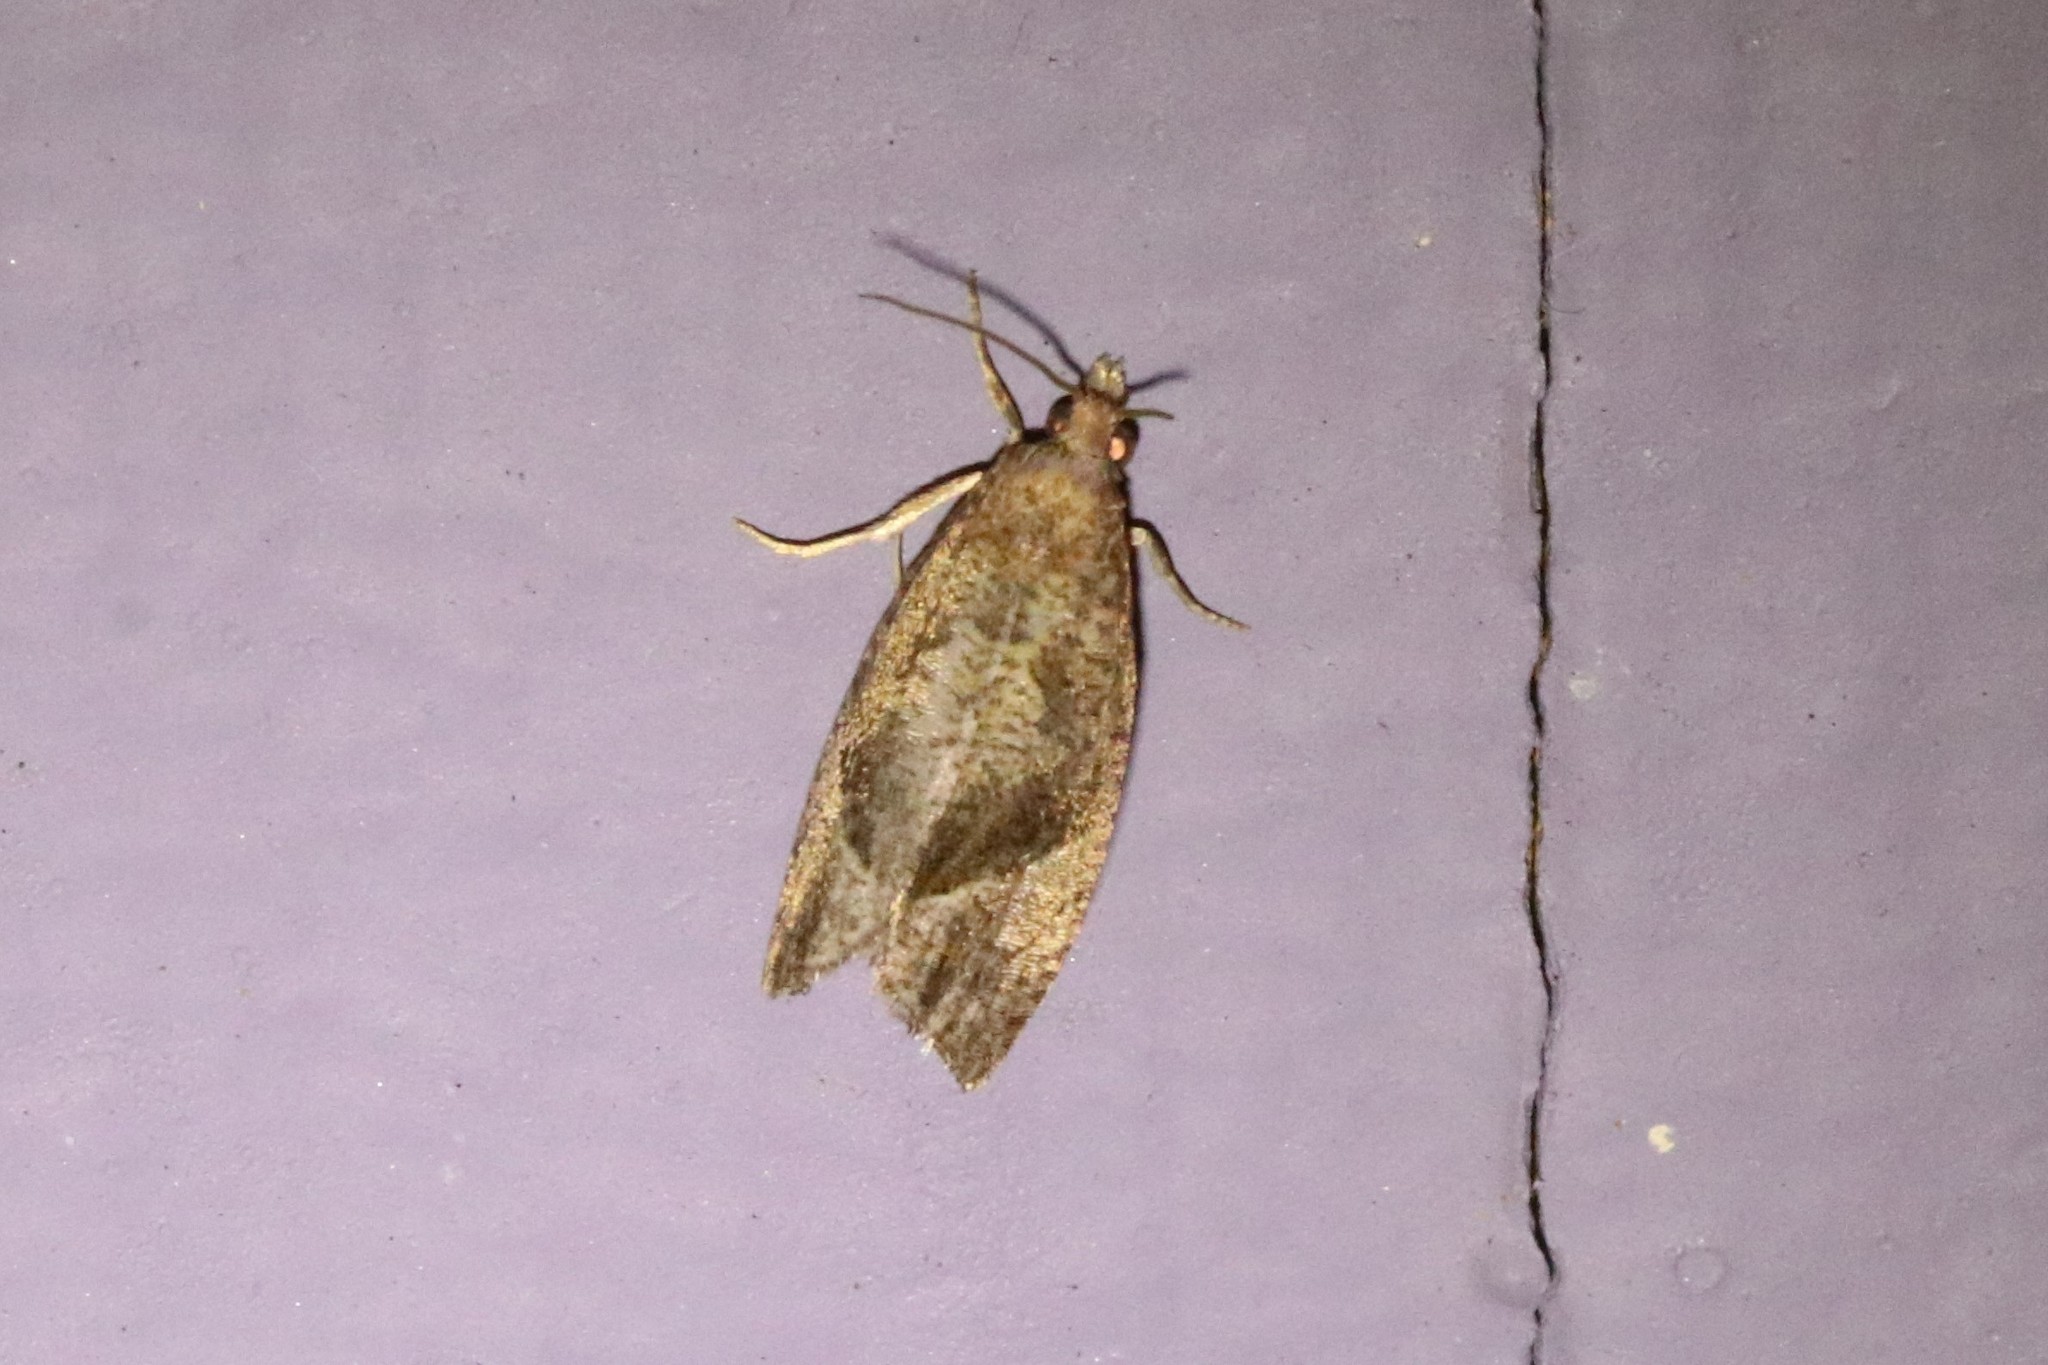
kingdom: Animalia
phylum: Arthropoda
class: Insecta
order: Lepidoptera
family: Tortricidae
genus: Pelochrista
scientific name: Pelochrista derelicta
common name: Derelict pelochrista moth
